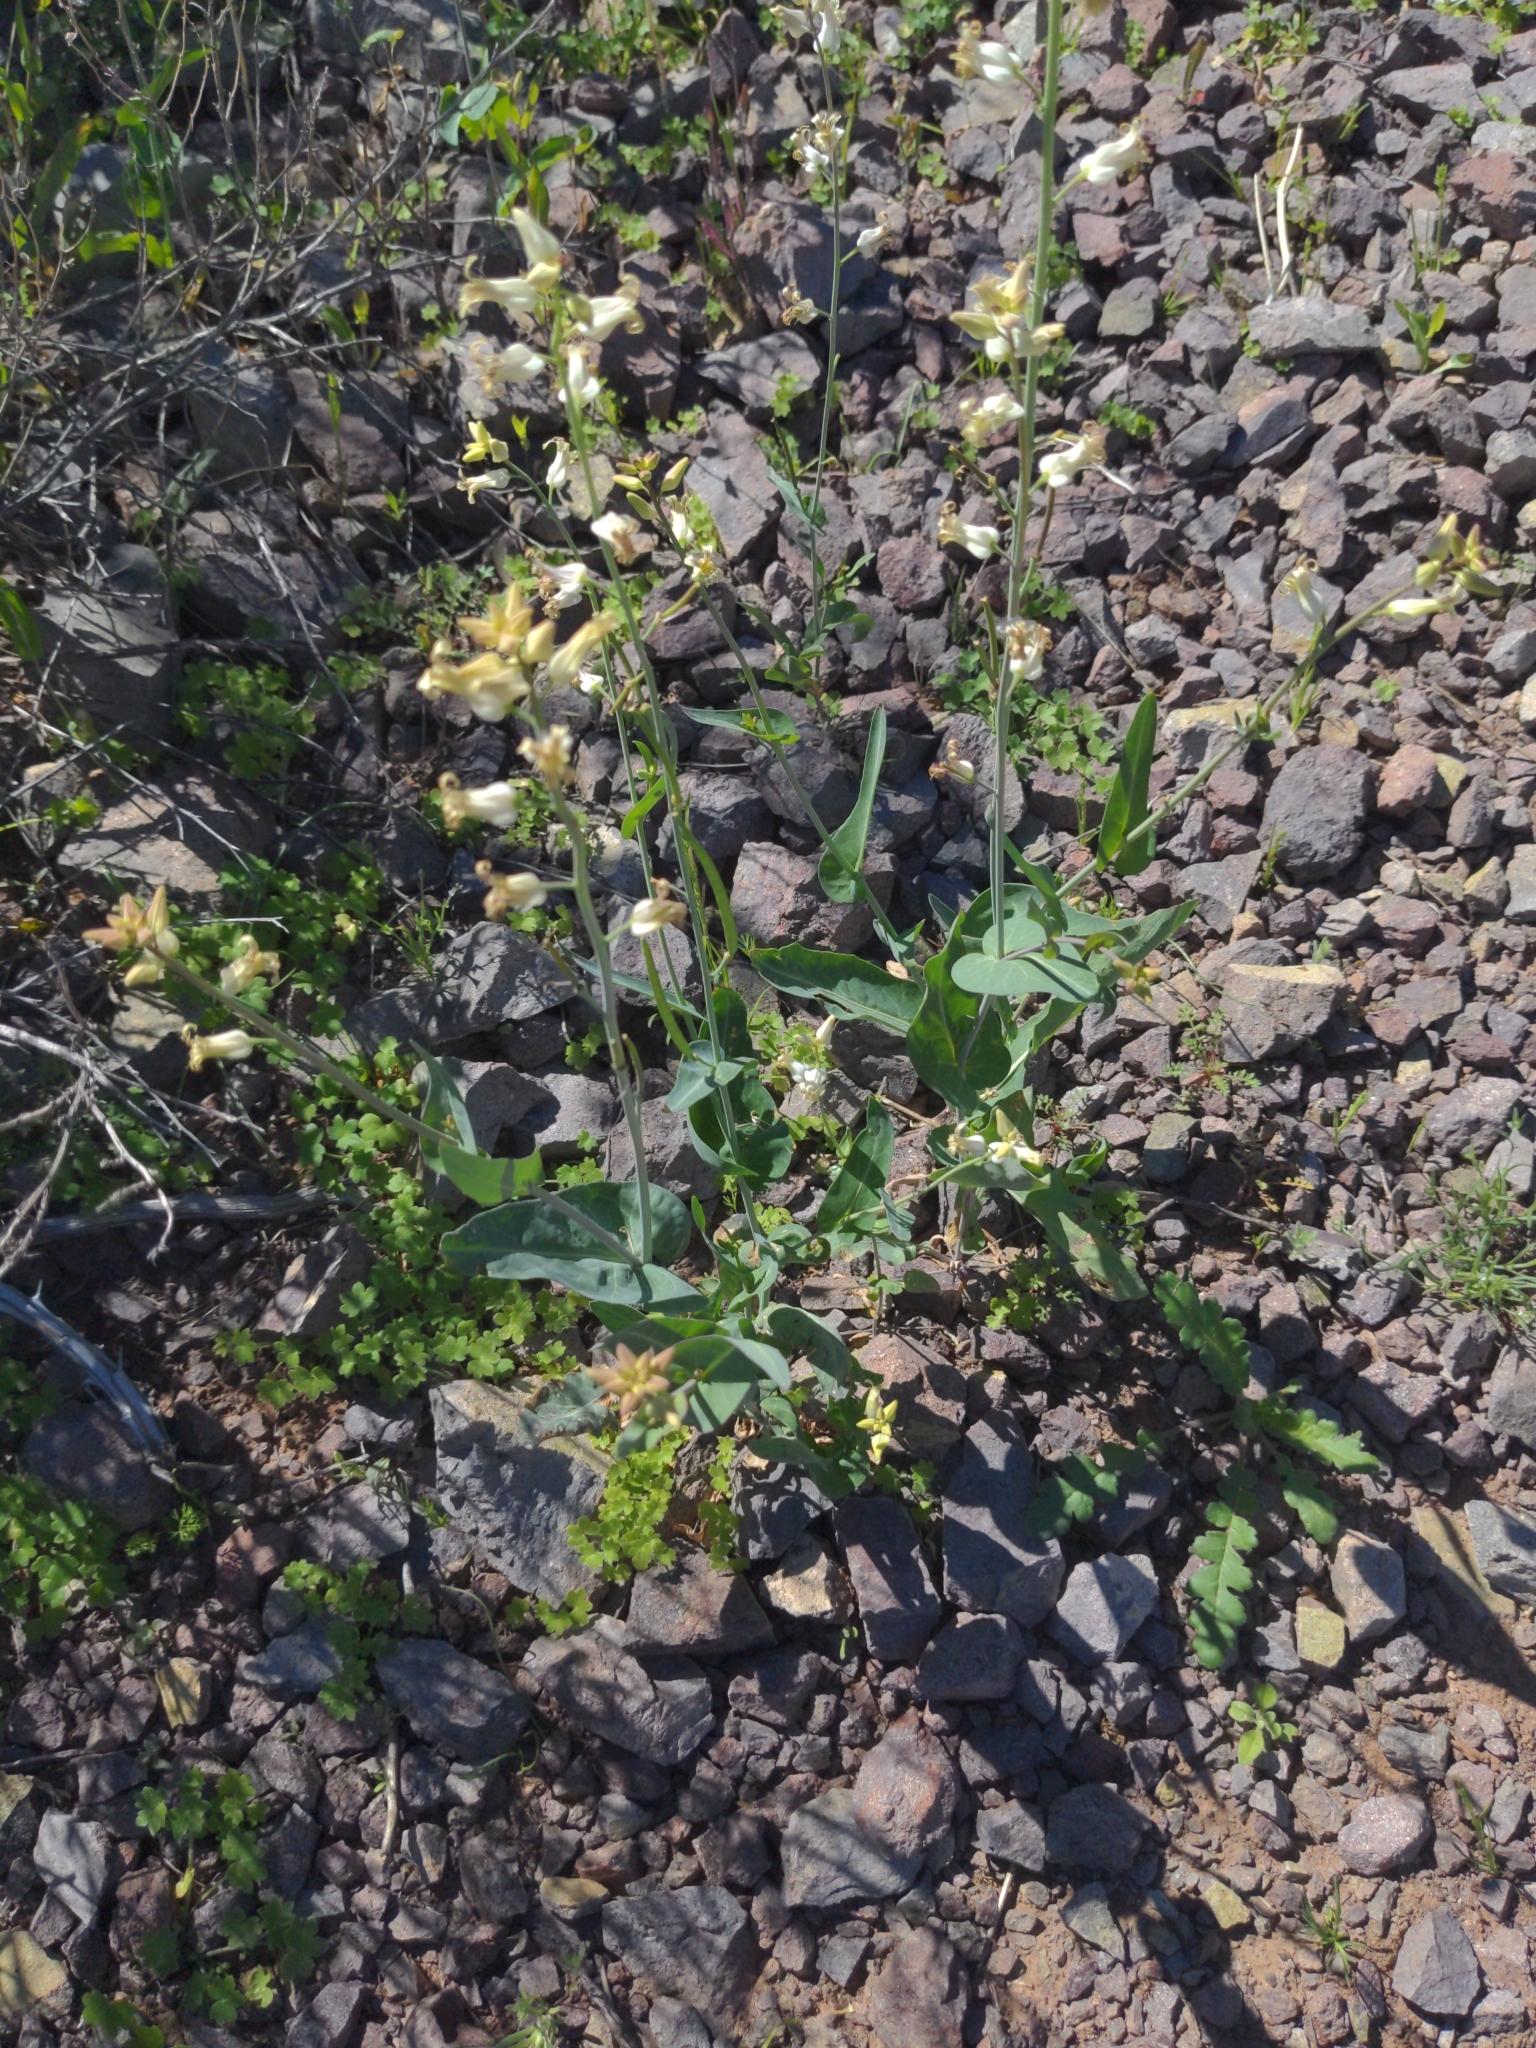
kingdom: Plantae
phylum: Tracheophyta
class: Magnoliopsida
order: Brassicales
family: Brassicaceae
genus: Streptanthus
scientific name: Streptanthus carinatus
